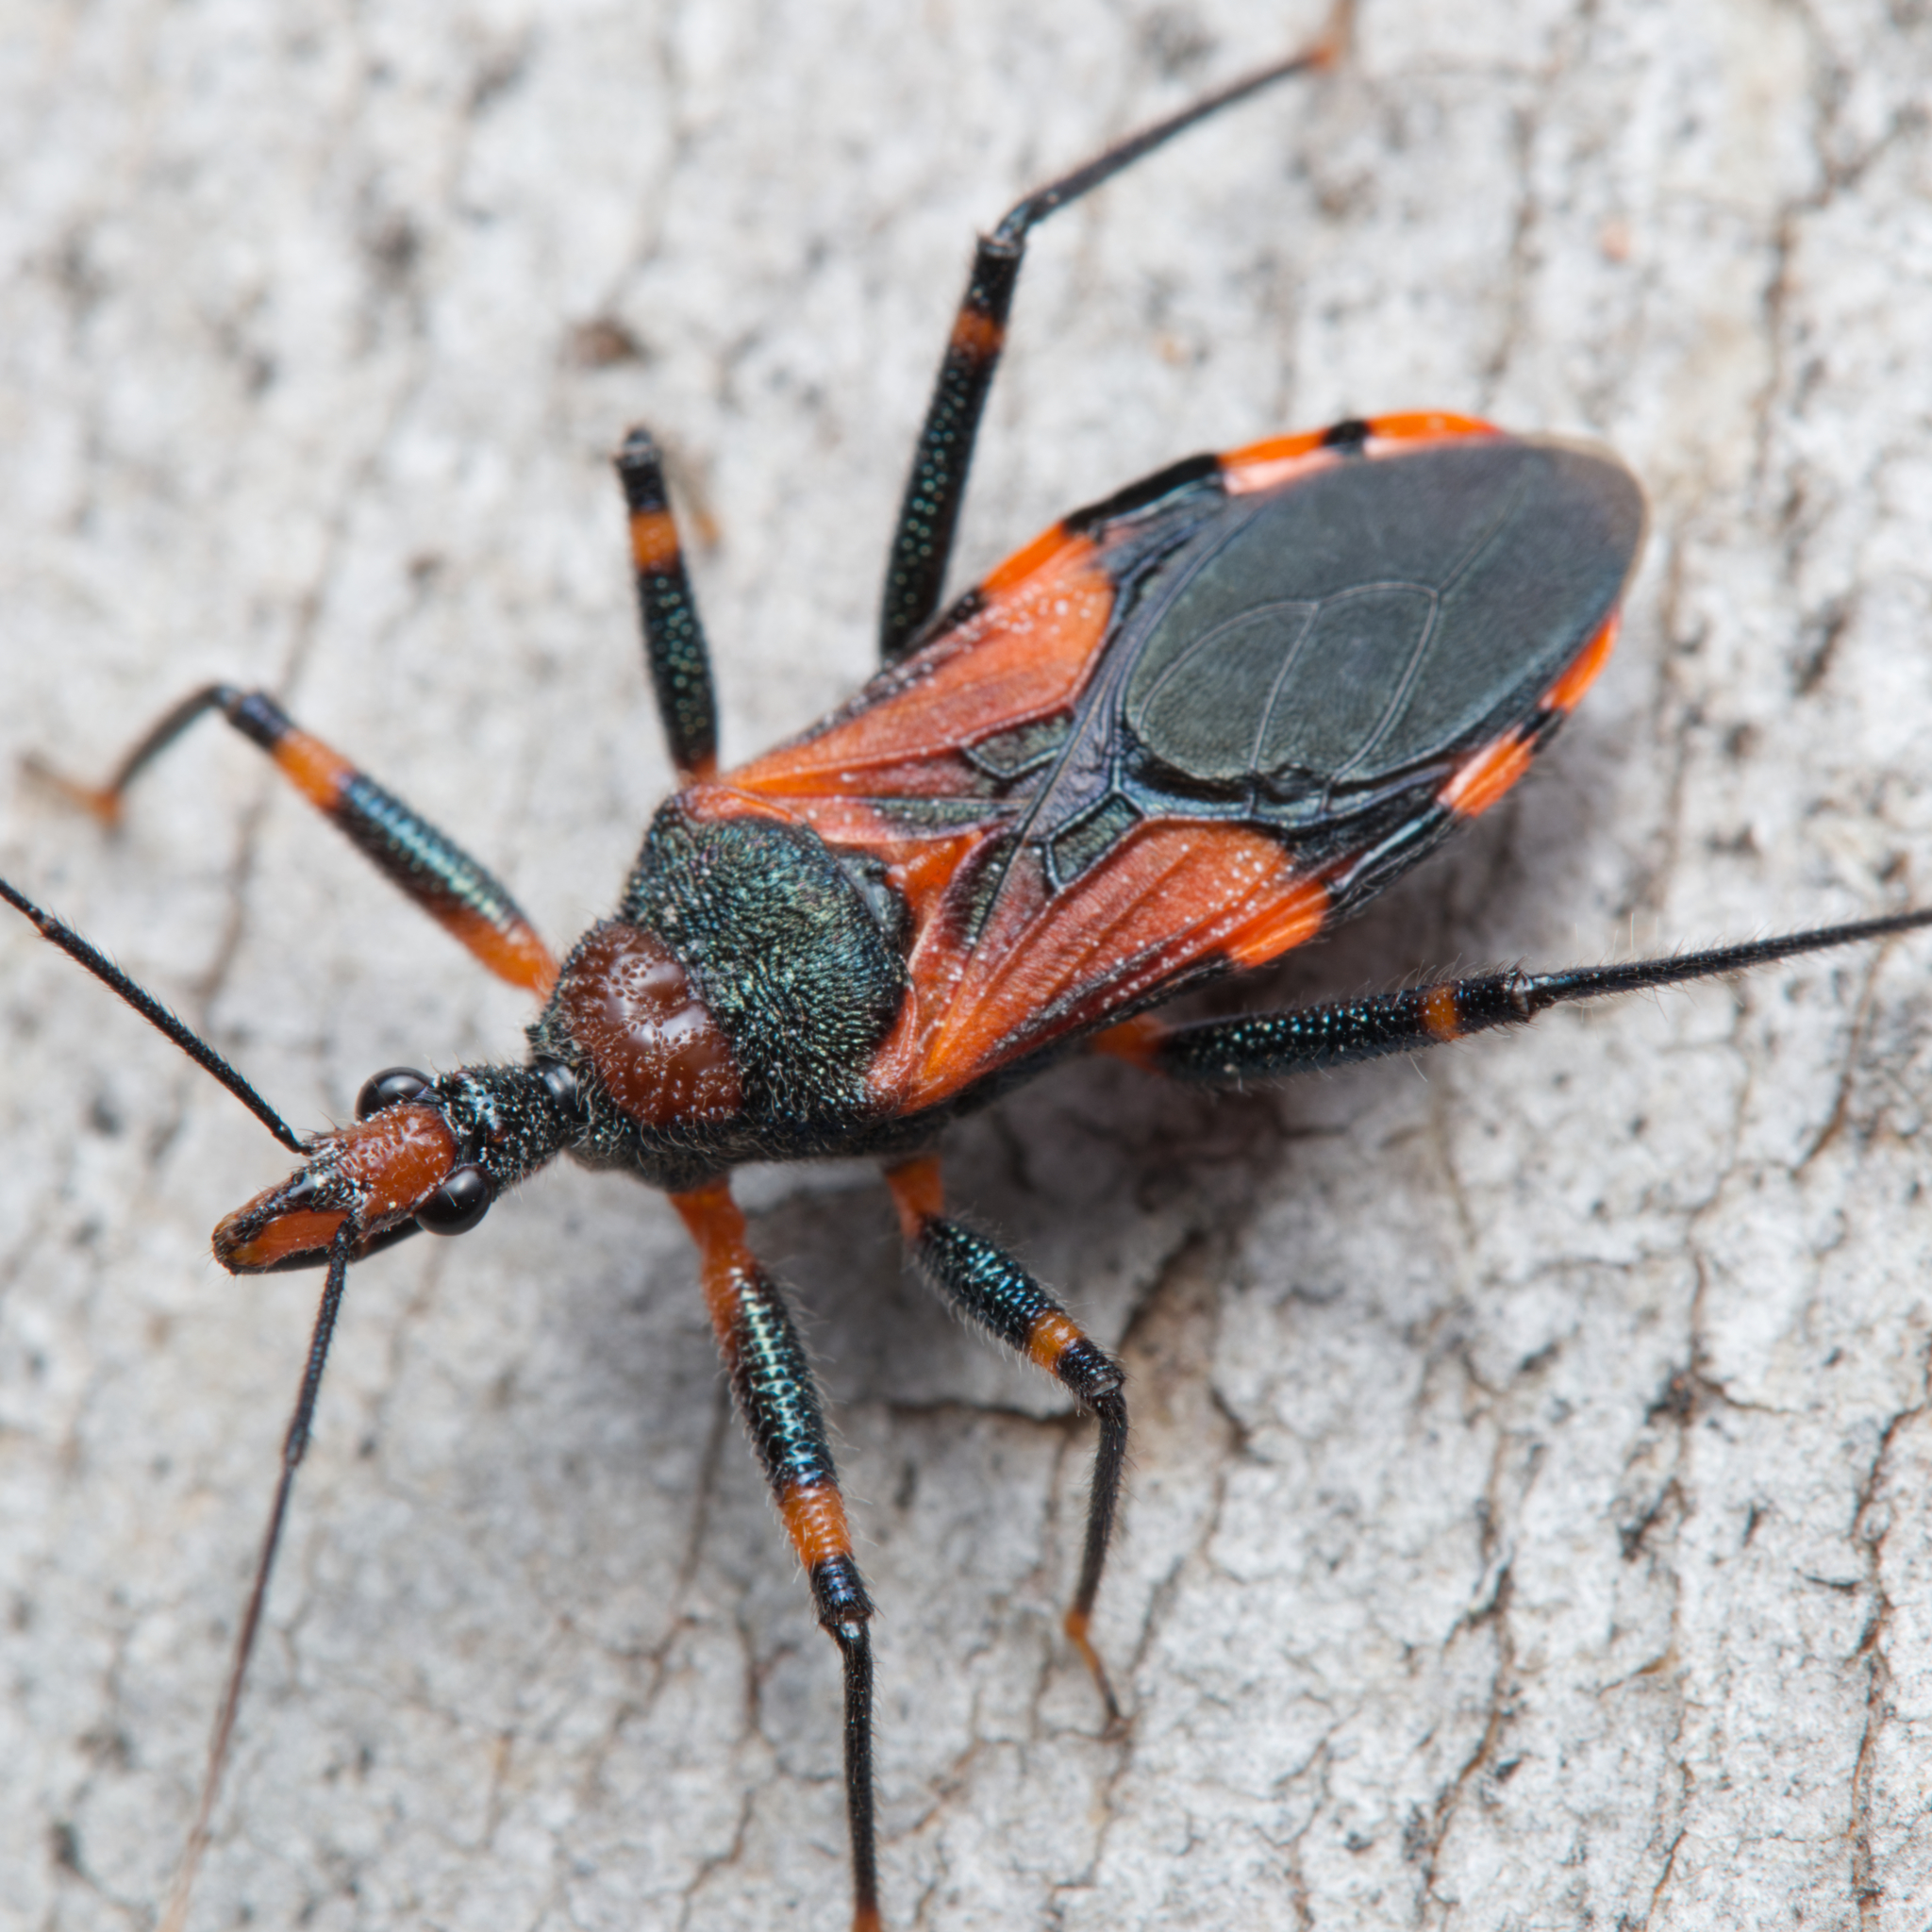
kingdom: Animalia
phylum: Arthropoda
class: Insecta
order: Hemiptera
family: Reduviidae
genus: Havinthus
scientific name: Havinthus rufovarius
